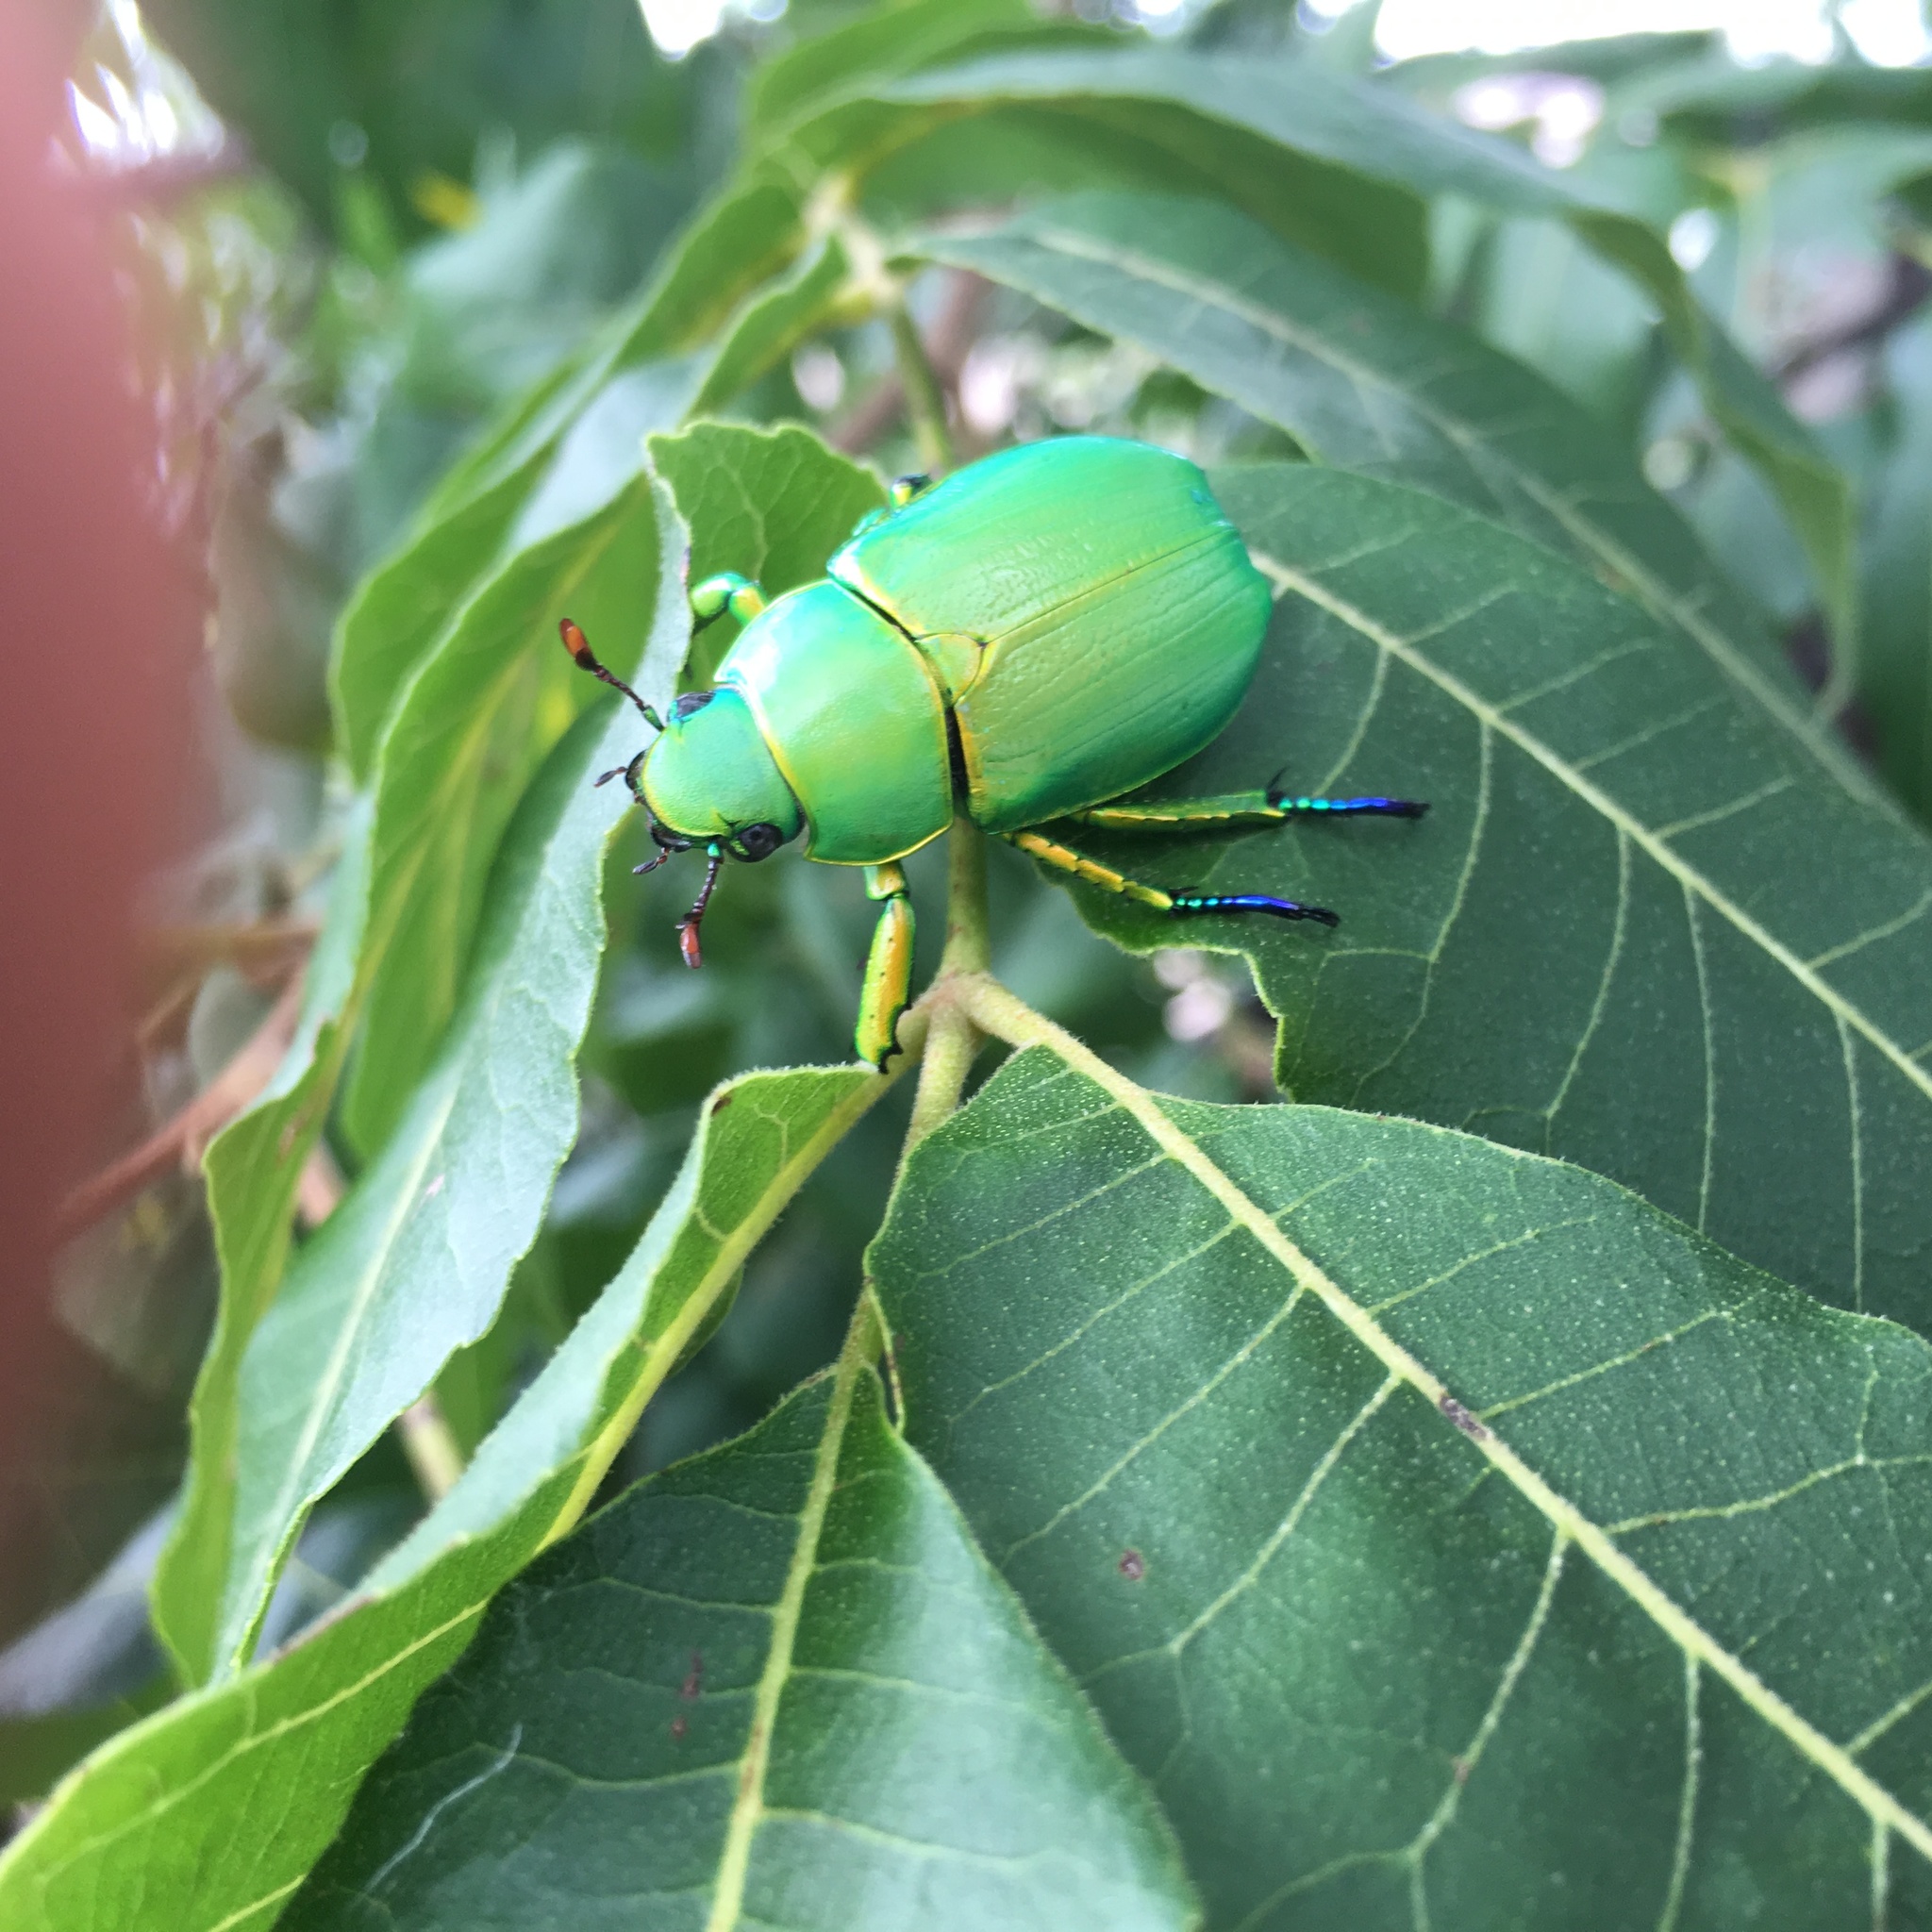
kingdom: Animalia
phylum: Arthropoda
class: Insecta
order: Coleoptera
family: Scarabaeidae
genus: Chrysina
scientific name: Chrysina woodi
